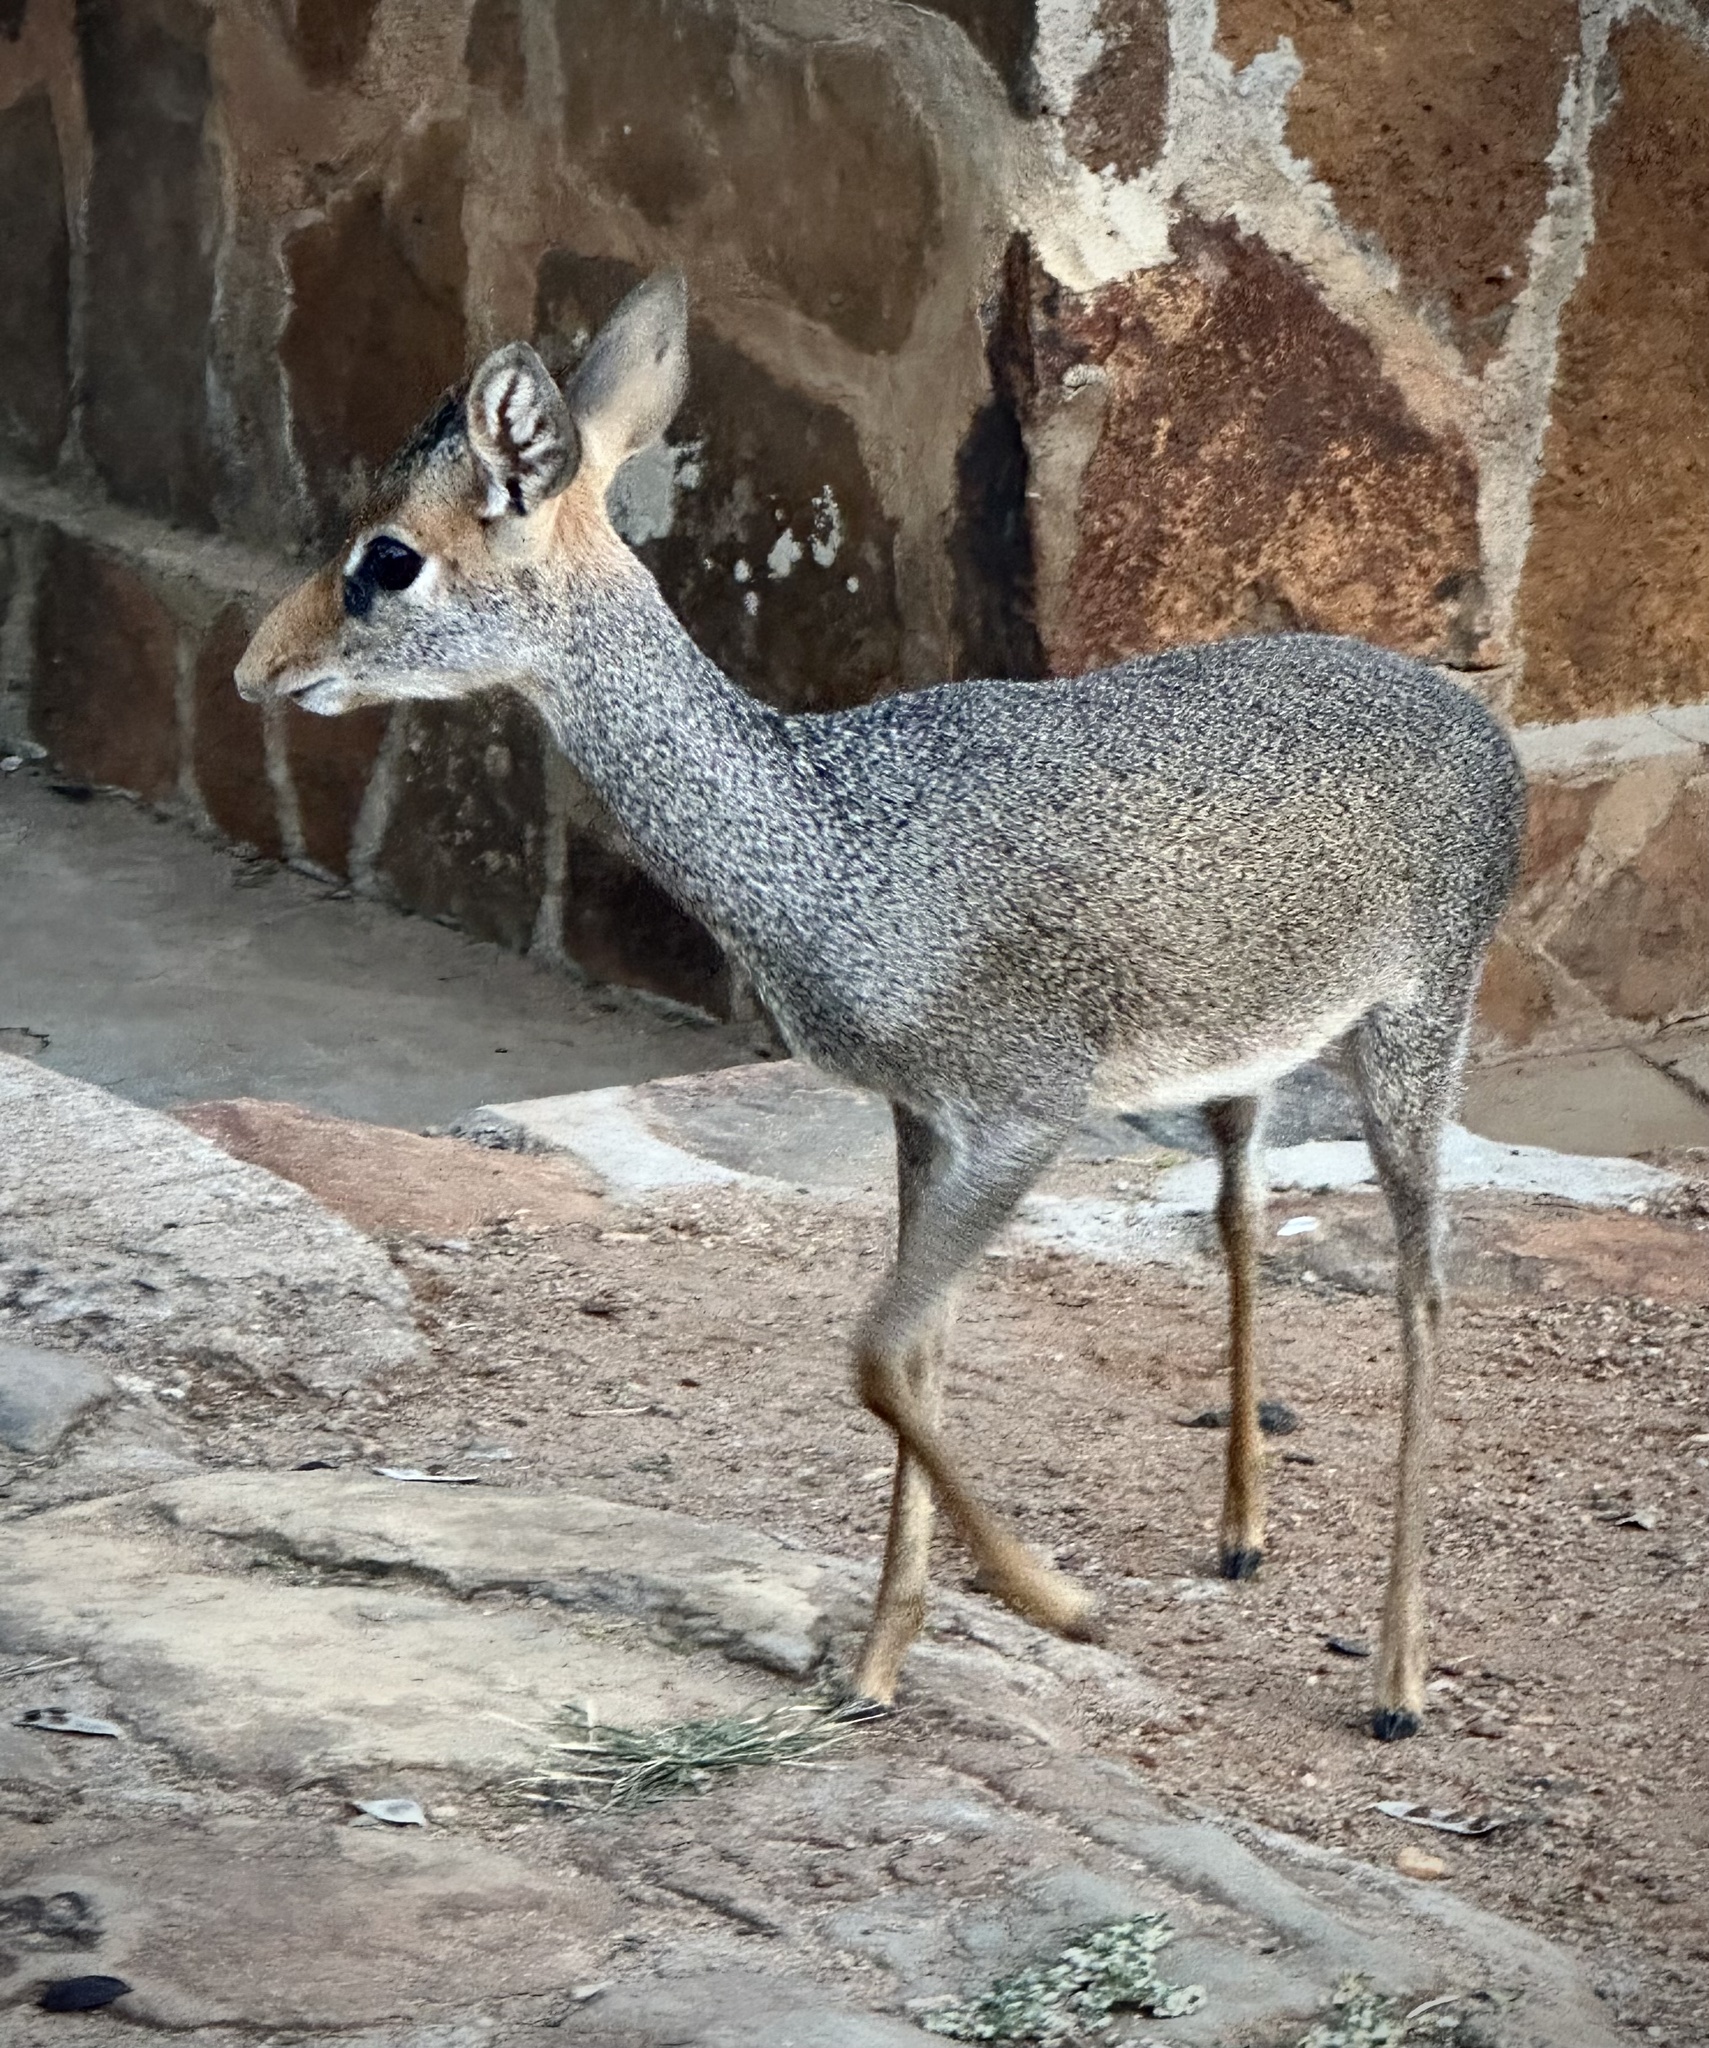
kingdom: Animalia
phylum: Chordata
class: Mammalia
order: Artiodactyla
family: Bovidae
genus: Madoqua
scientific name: Madoqua guentheri
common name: Günther's dikdik
